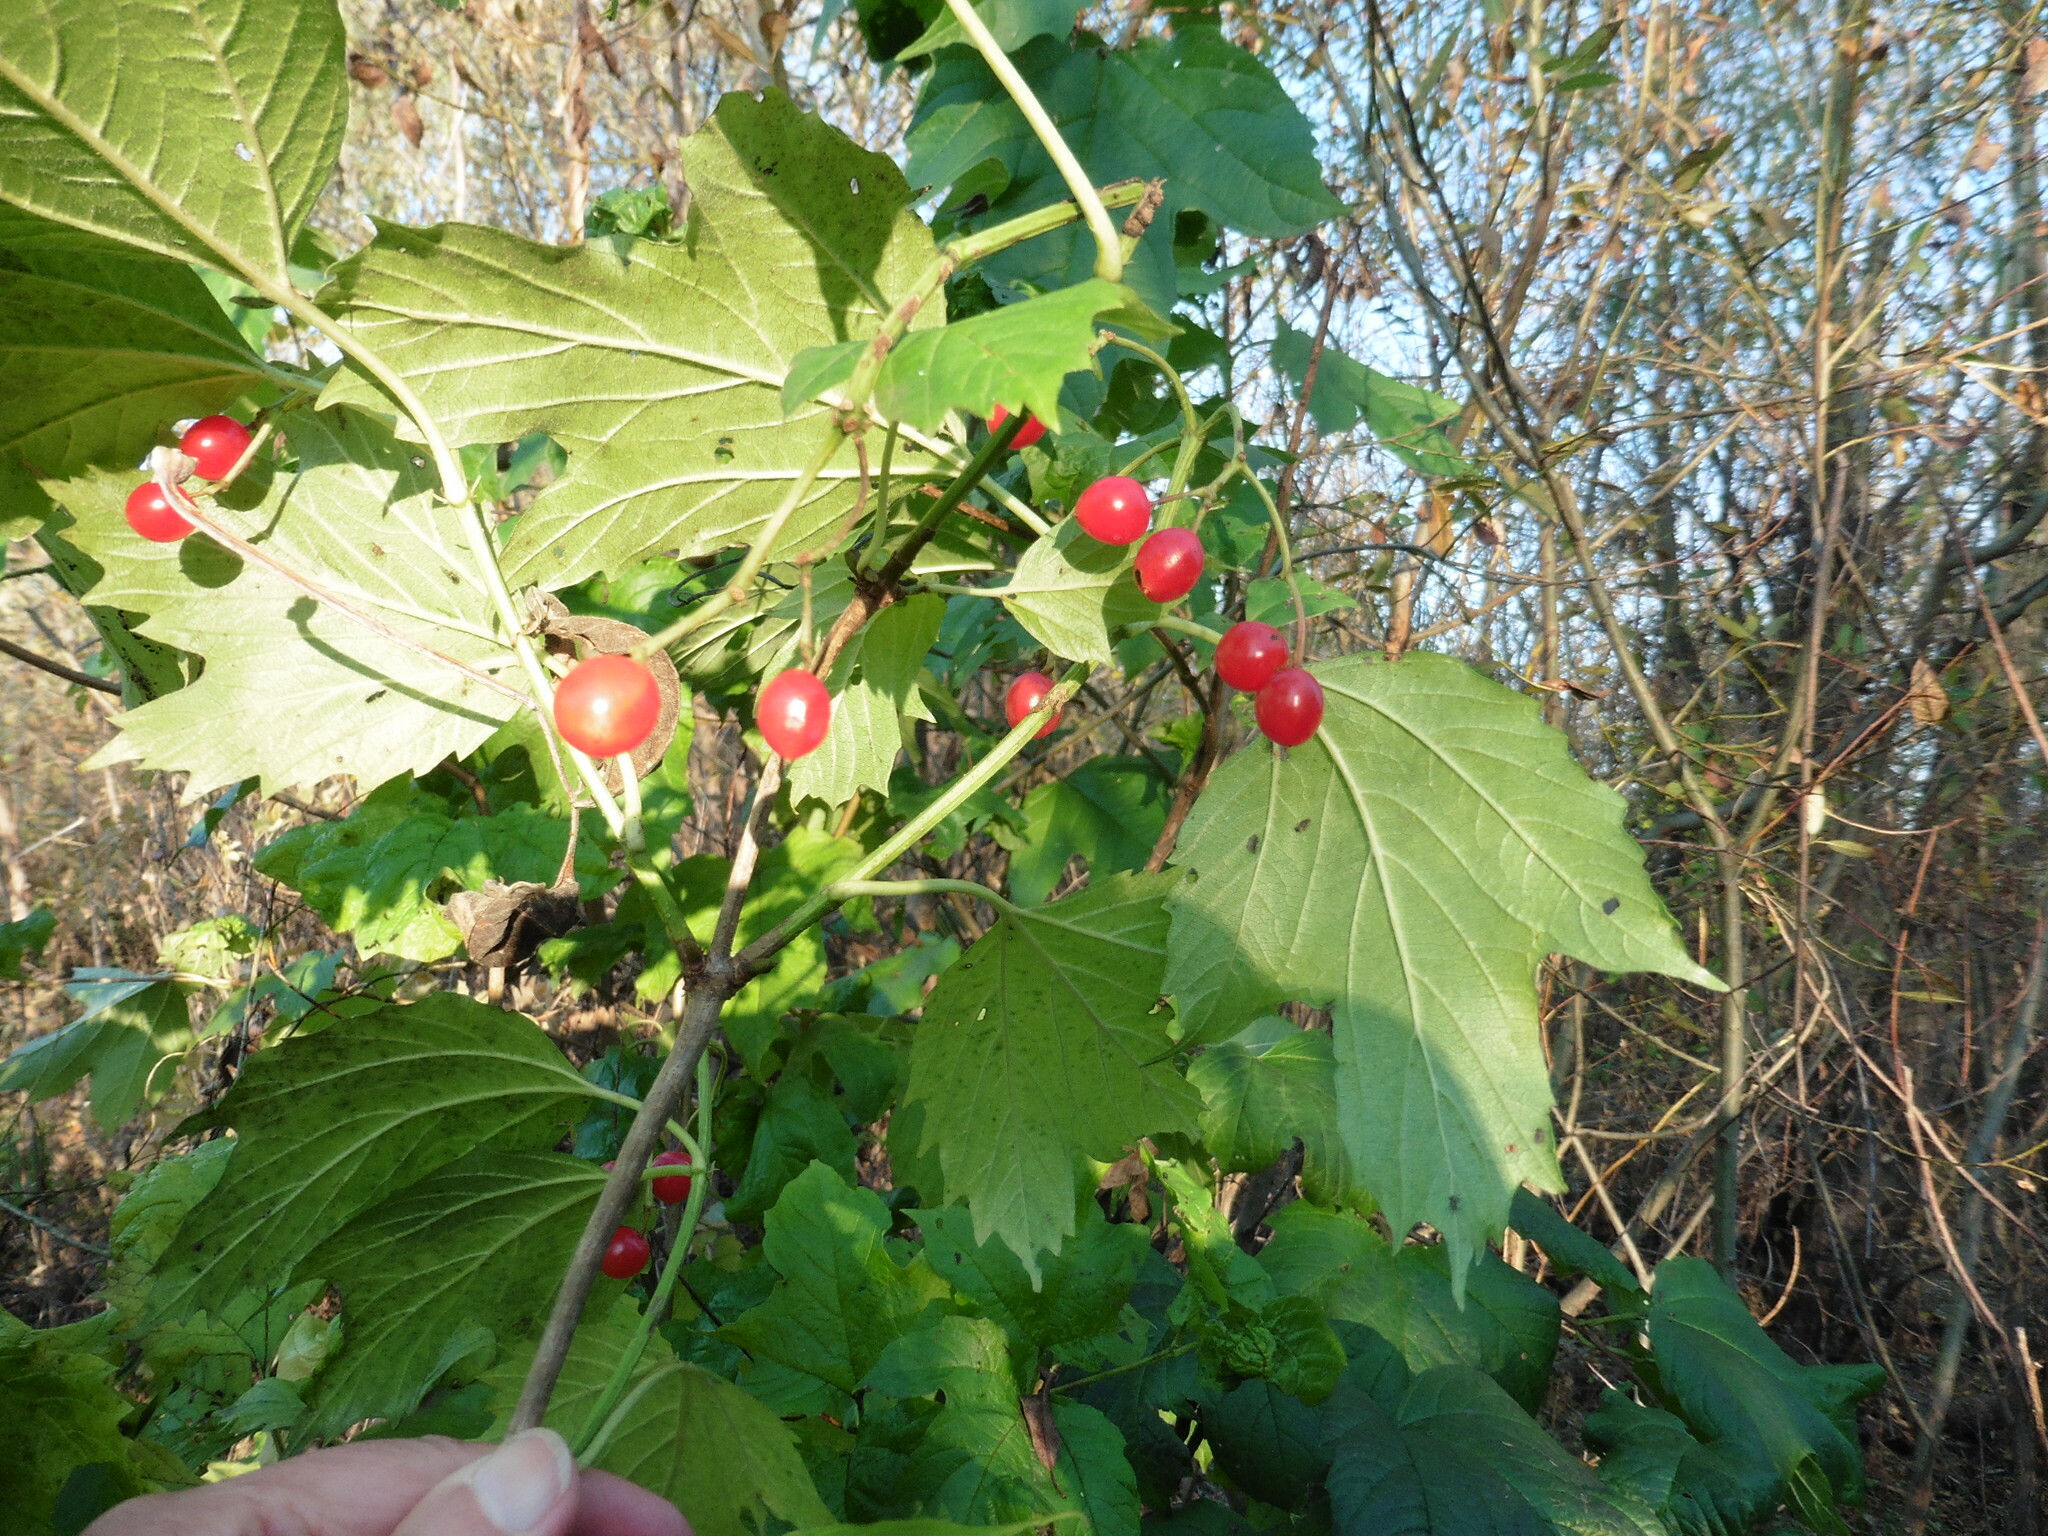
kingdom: Plantae
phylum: Tracheophyta
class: Magnoliopsida
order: Dipsacales
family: Viburnaceae
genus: Viburnum
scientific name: Viburnum opulus
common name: Guelder-rose
